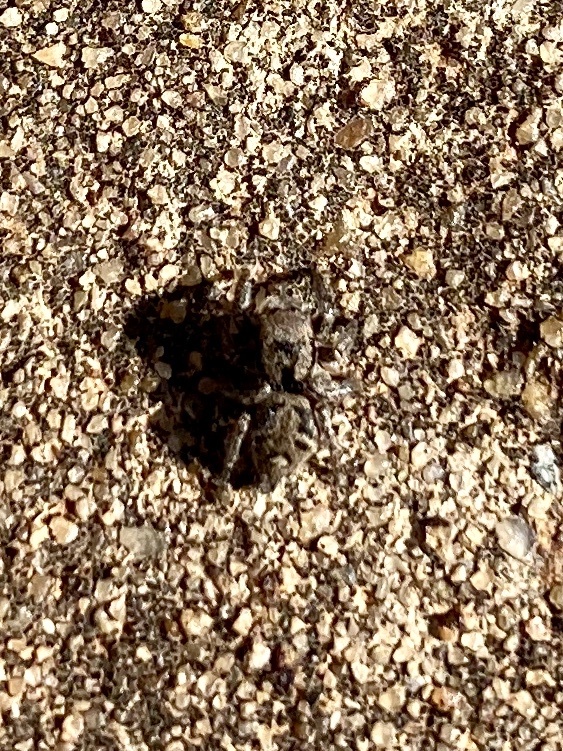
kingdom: Animalia
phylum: Arthropoda
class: Arachnida
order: Araneae
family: Salticidae
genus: Habronattus
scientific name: Habronattus coecatus
